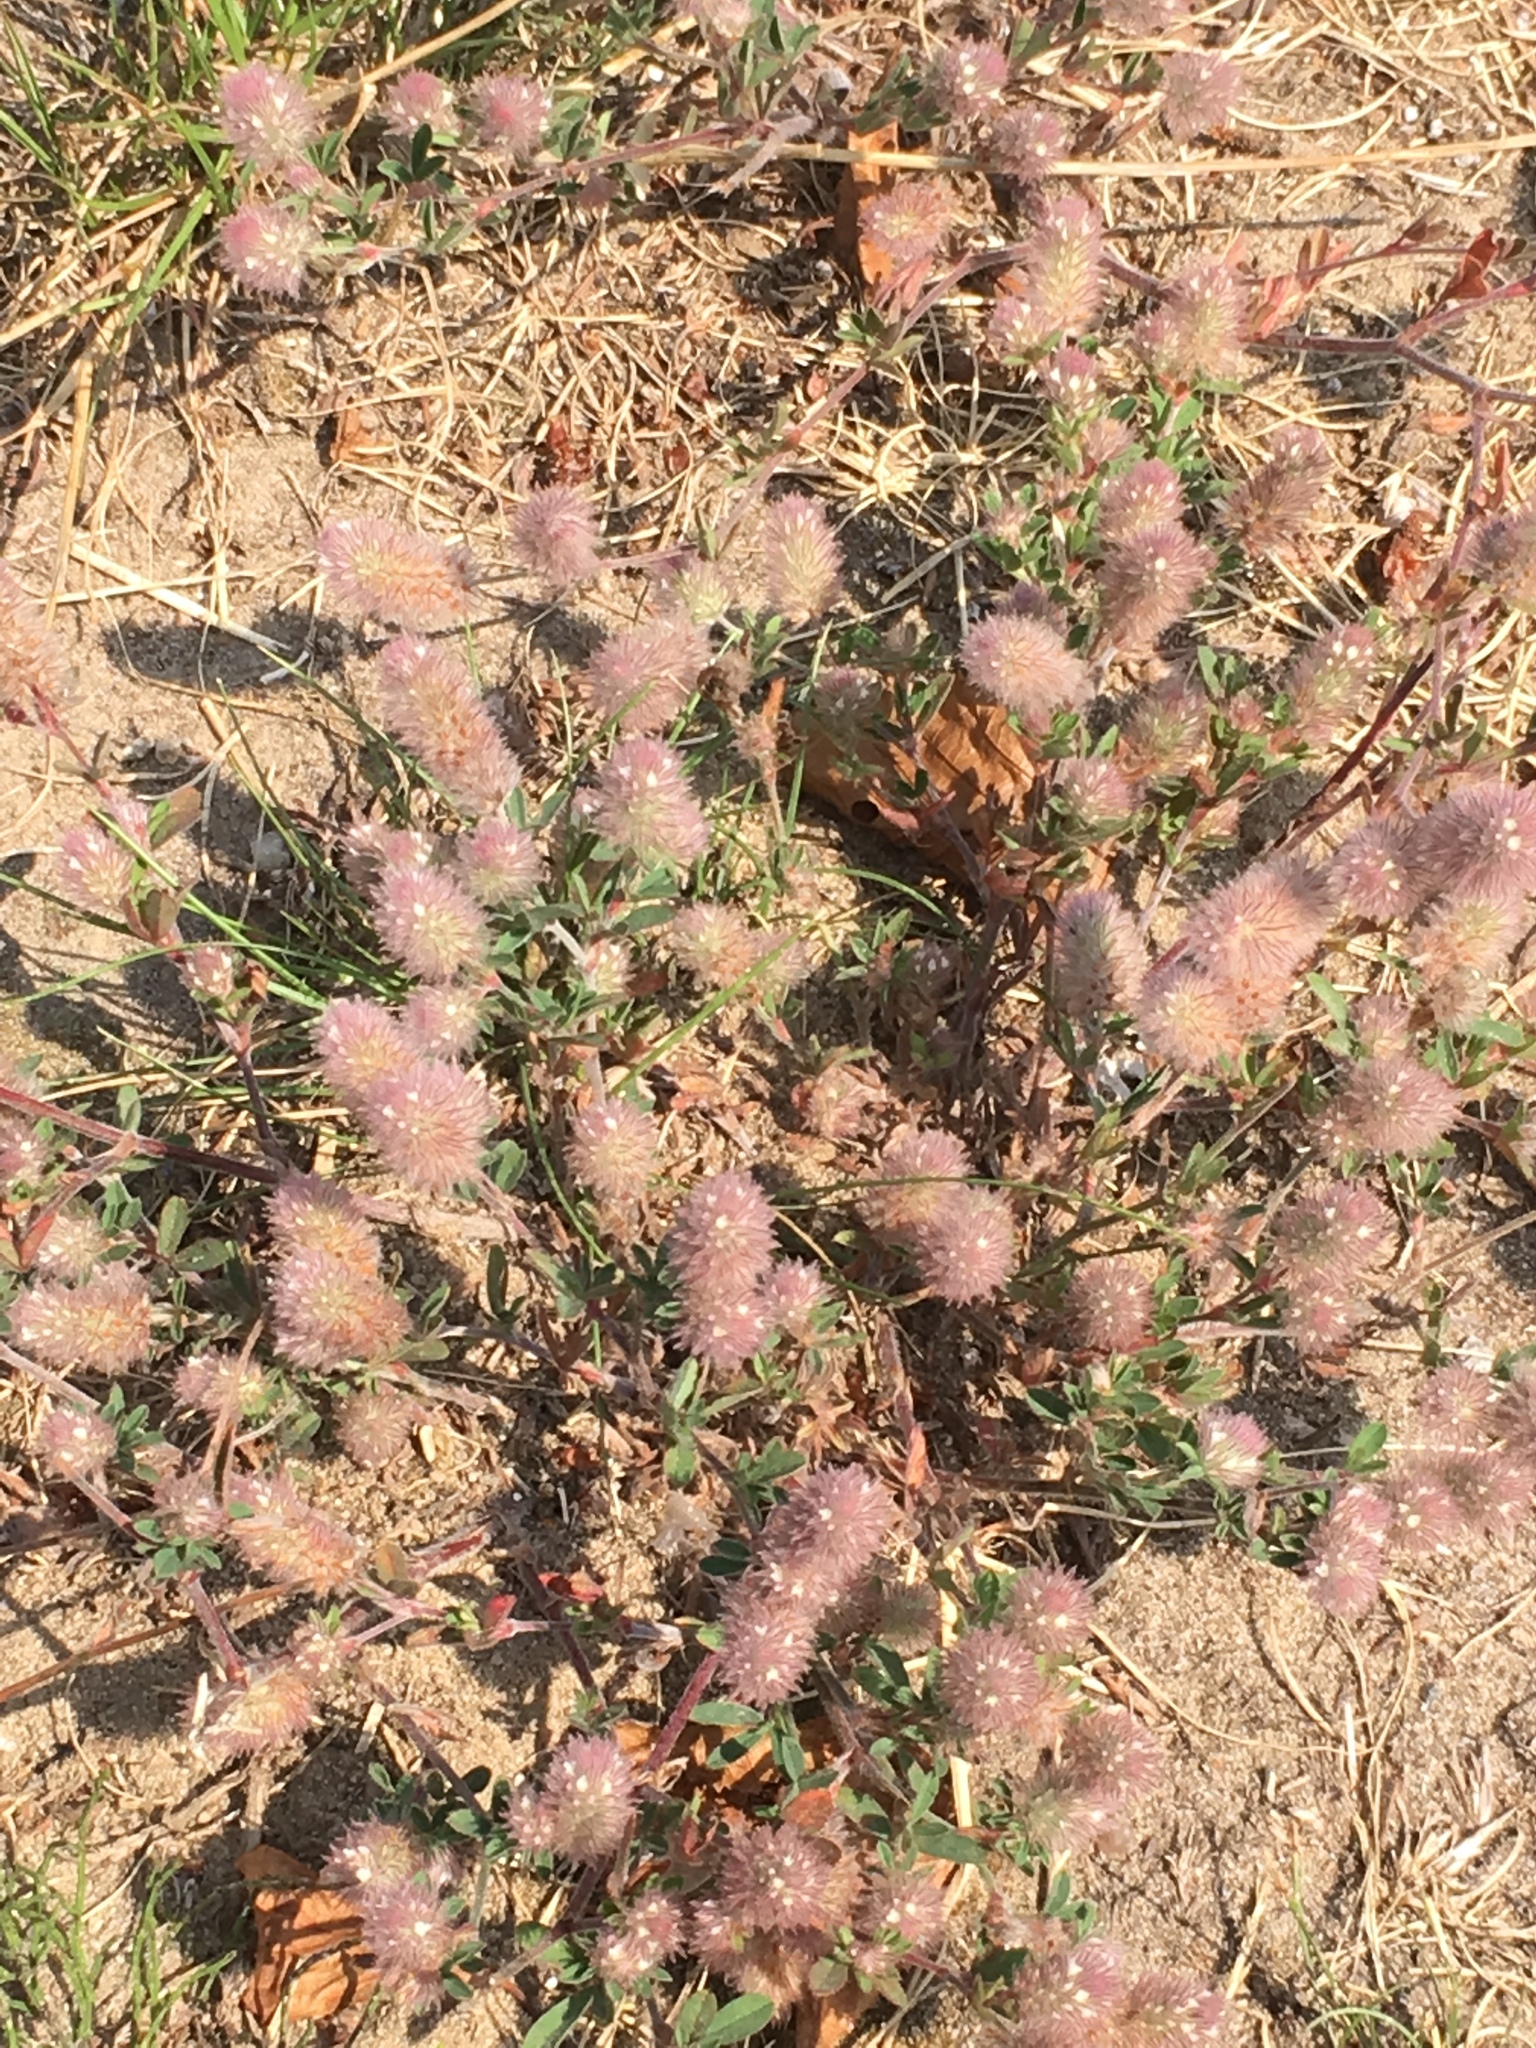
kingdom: Plantae
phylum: Tracheophyta
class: Magnoliopsida
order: Fabales
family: Fabaceae
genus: Trifolium
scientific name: Trifolium arvense
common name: Hare's-foot clover
